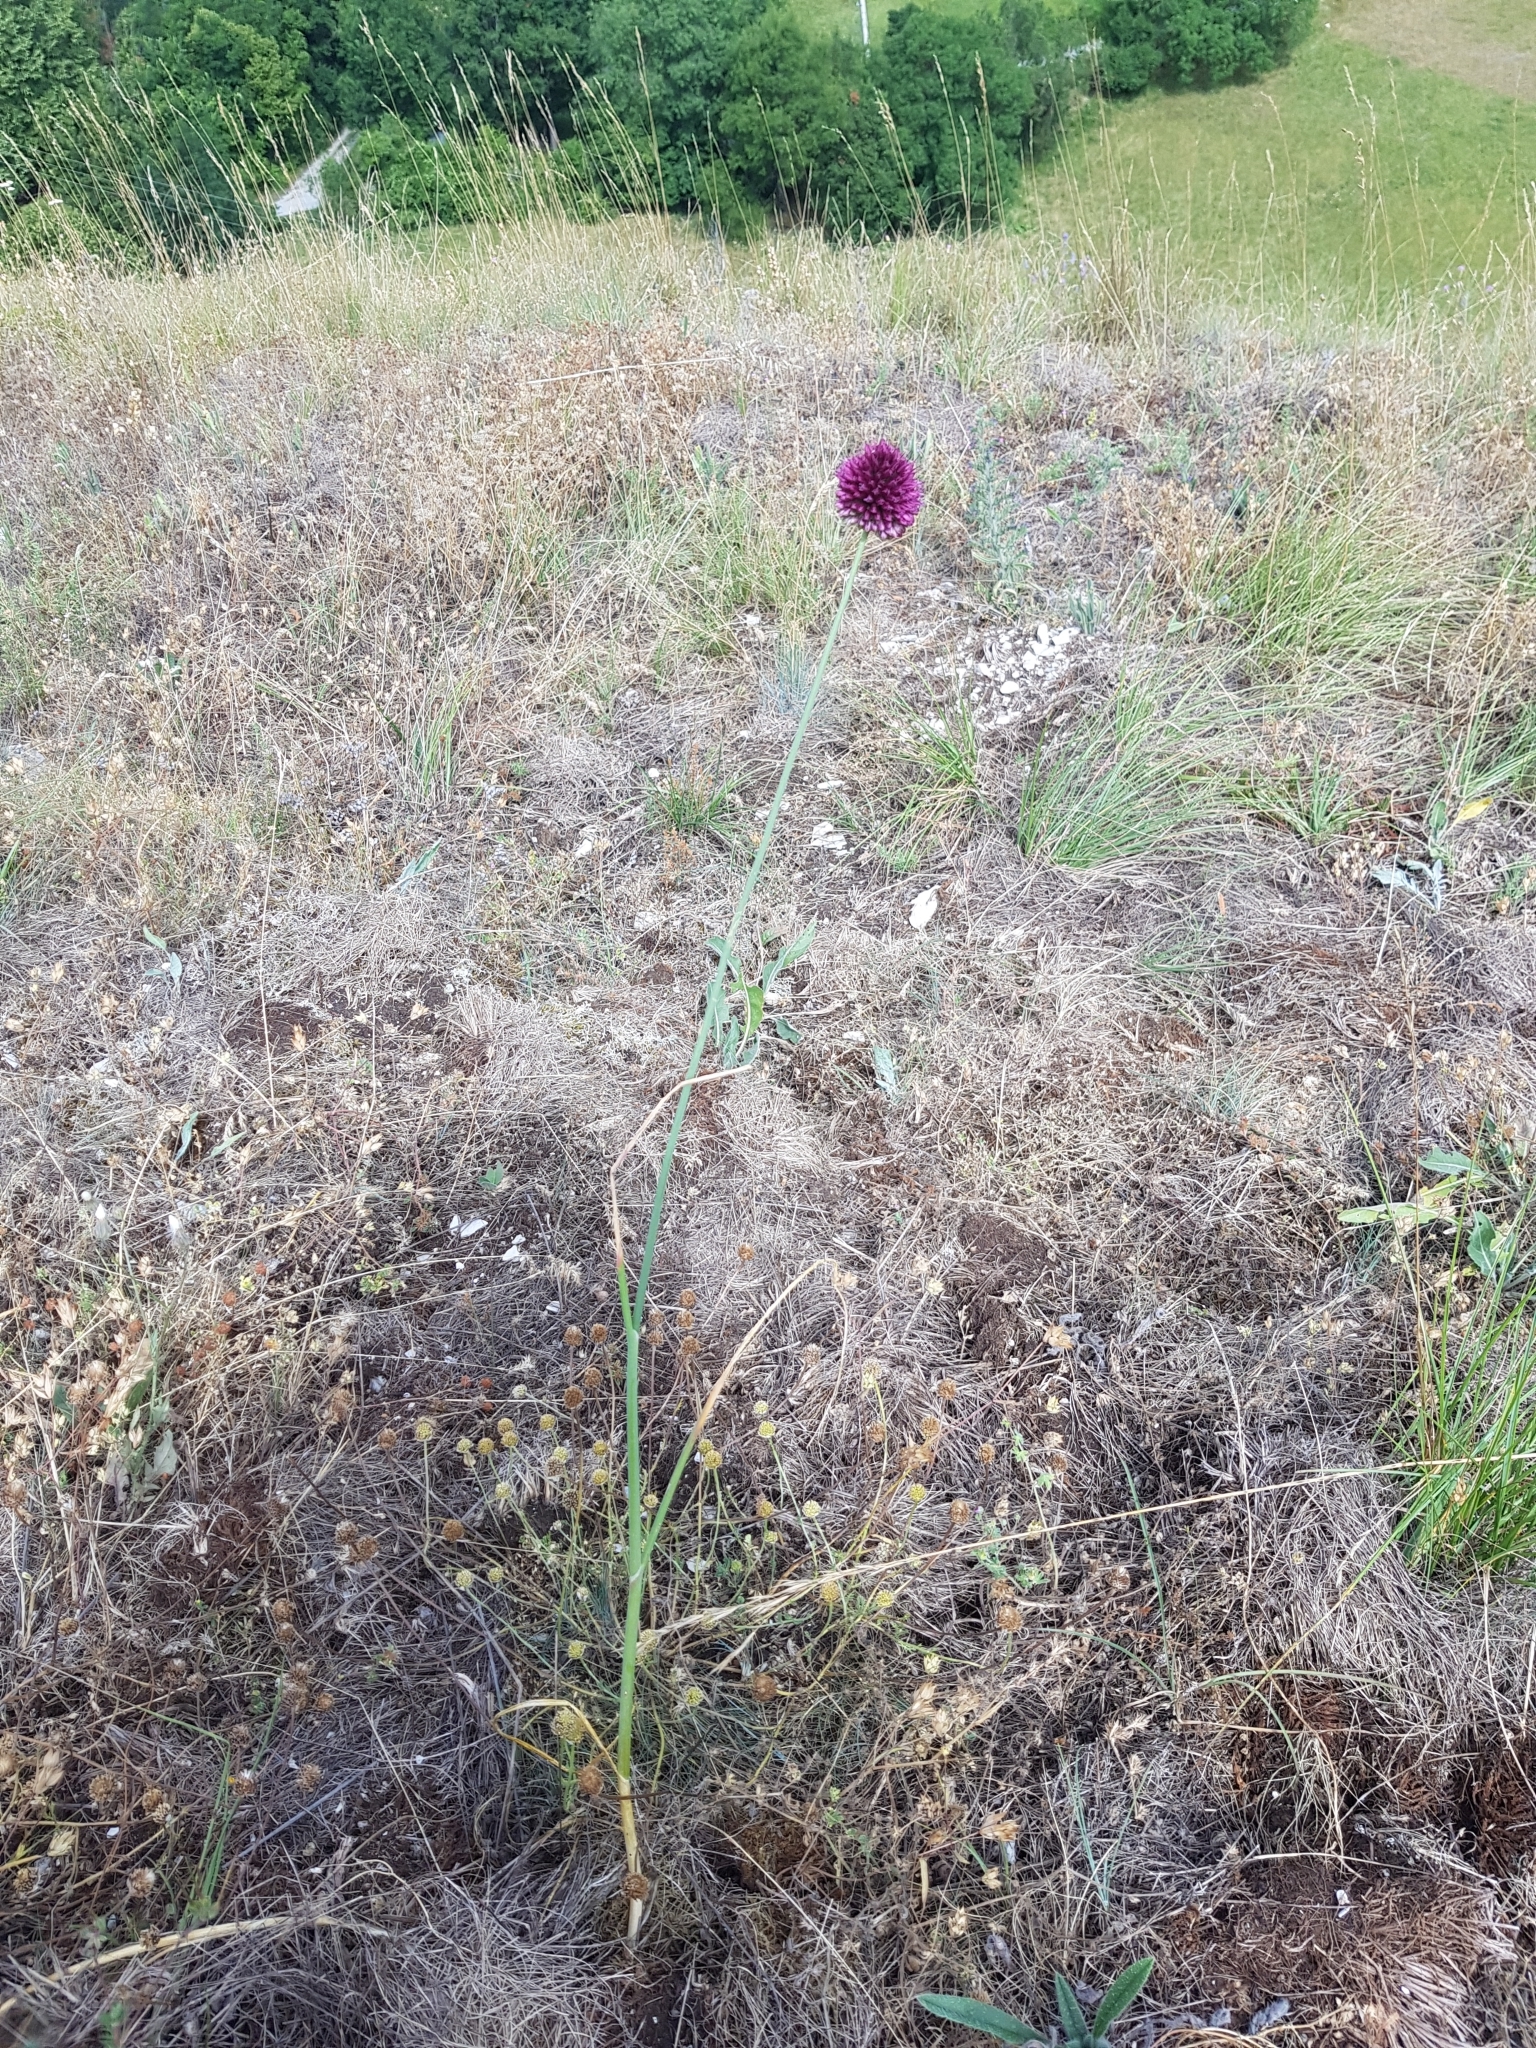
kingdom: Plantae
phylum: Tracheophyta
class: Liliopsida
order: Asparagales
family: Amaryllidaceae
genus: Allium
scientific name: Allium sphaerocephalon
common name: Round-headed leek
